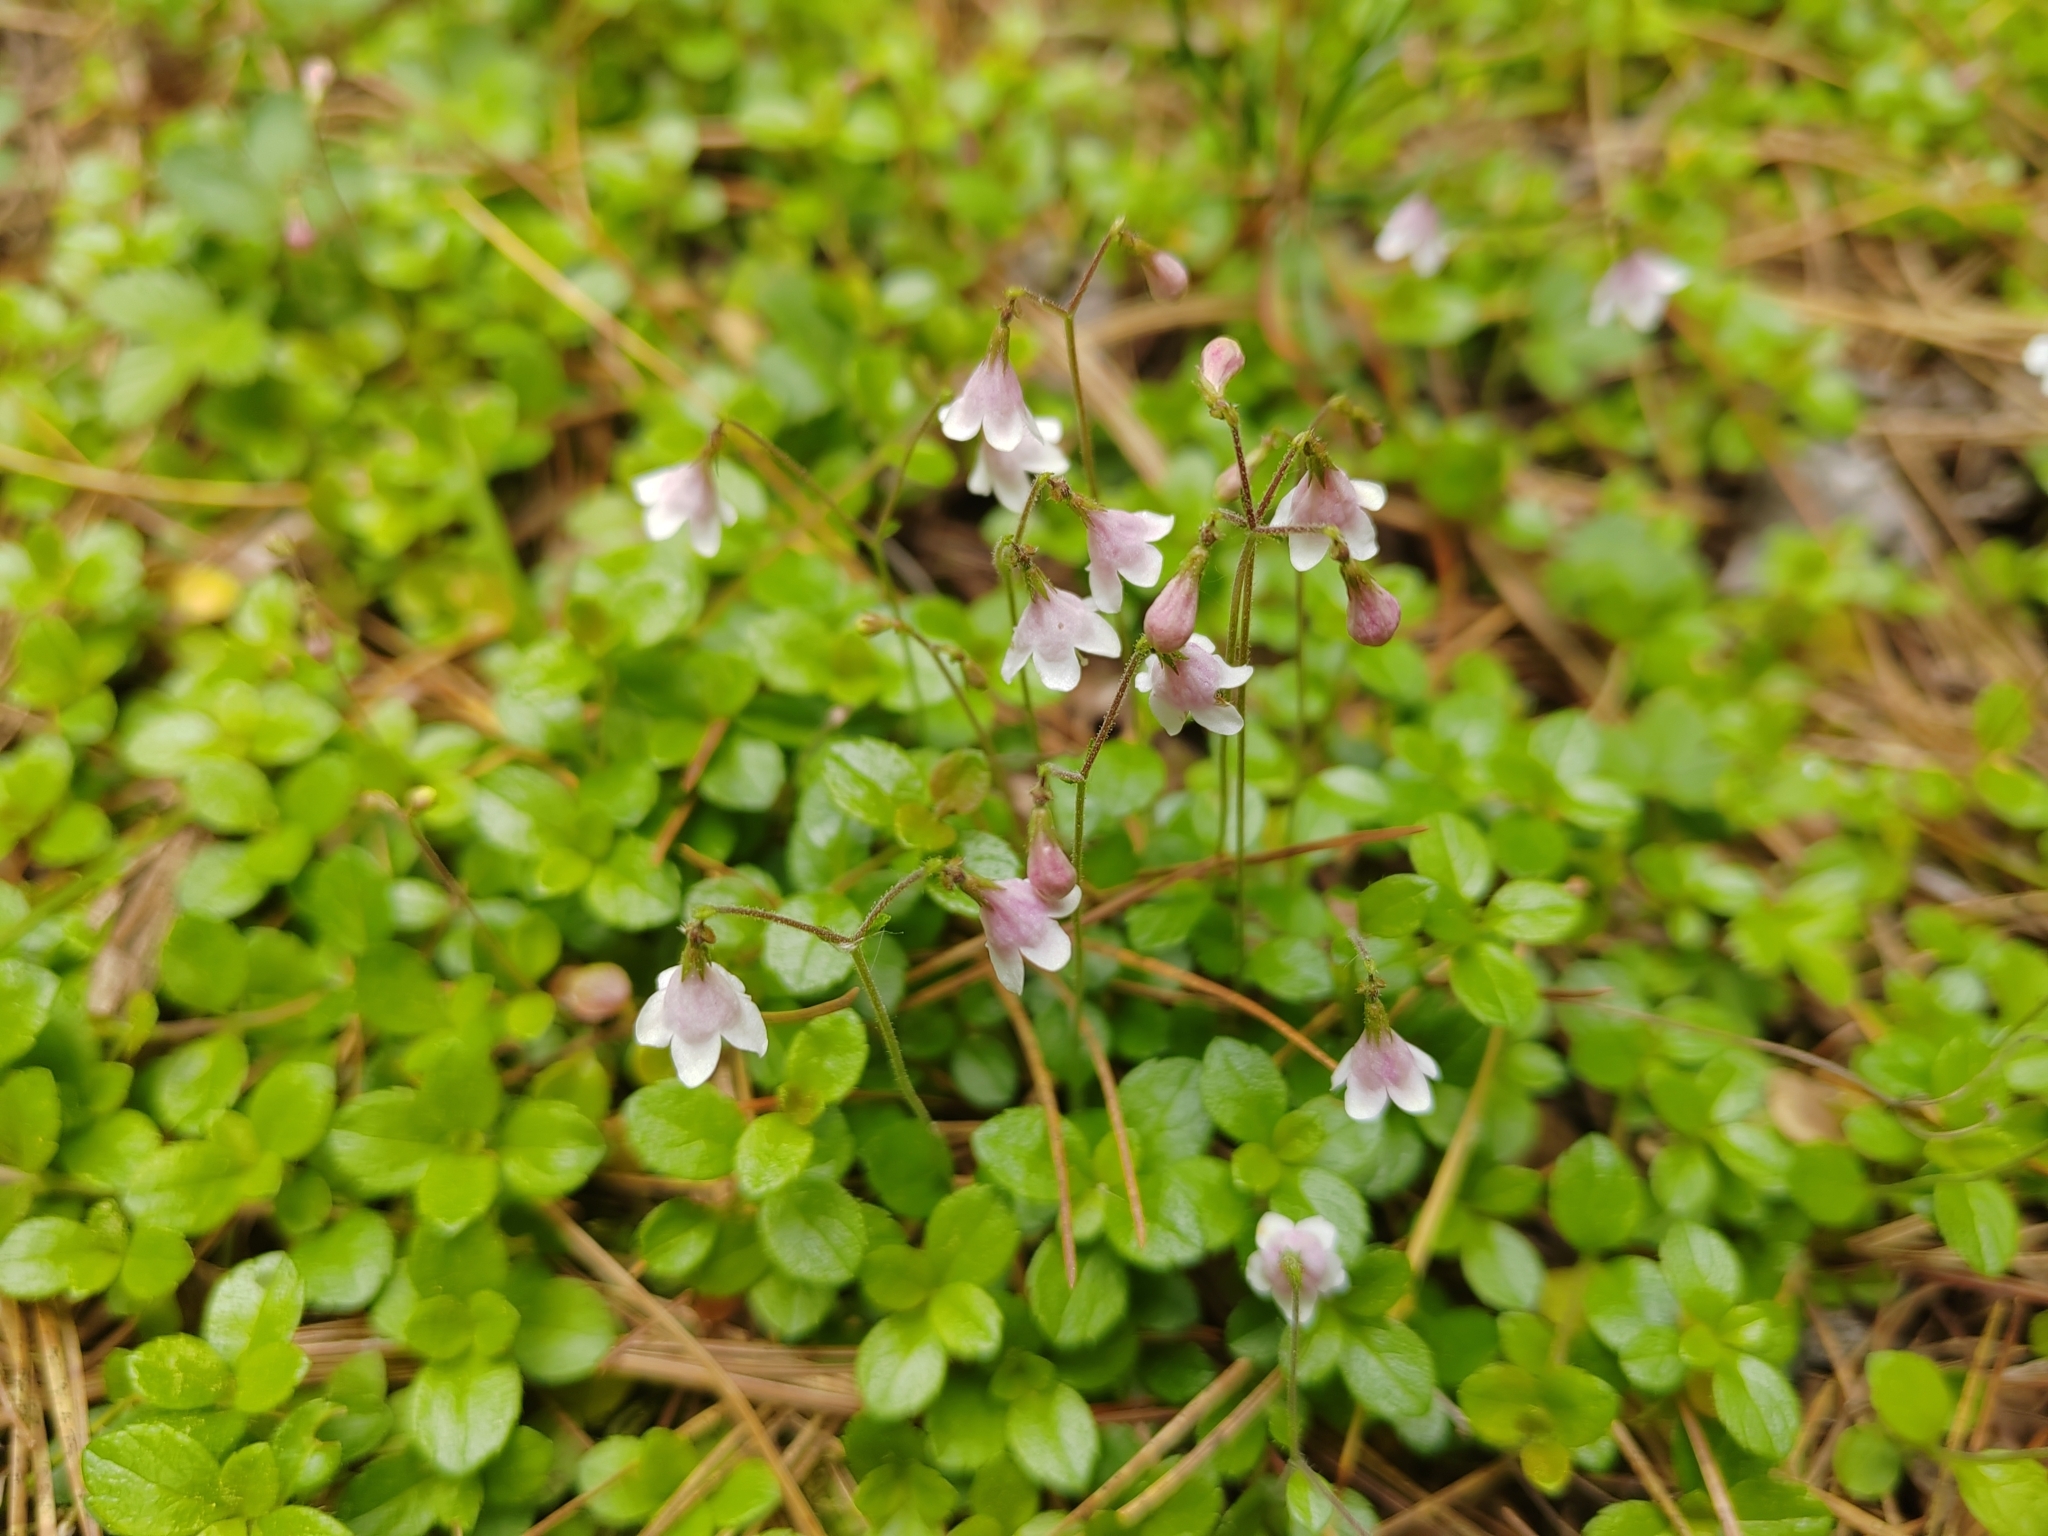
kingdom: Plantae
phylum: Tracheophyta
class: Magnoliopsida
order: Dipsacales
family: Caprifoliaceae
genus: Linnaea
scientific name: Linnaea borealis
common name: Twinflower
